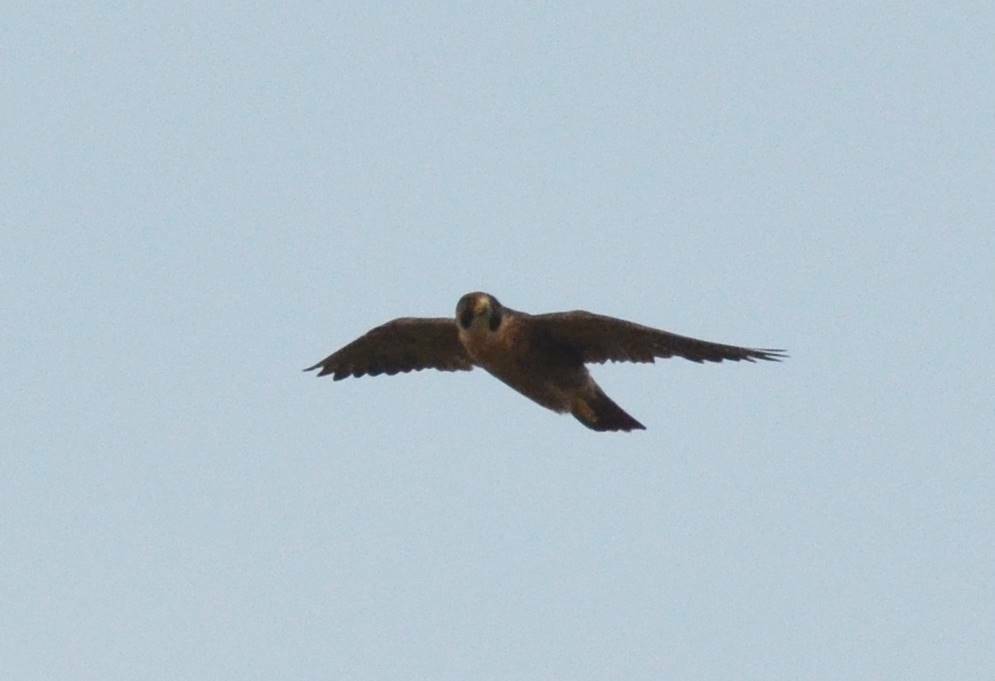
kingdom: Animalia
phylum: Chordata
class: Aves
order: Falconiformes
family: Falconidae
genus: Falco
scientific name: Falco peregrinus
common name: Peregrine falcon
